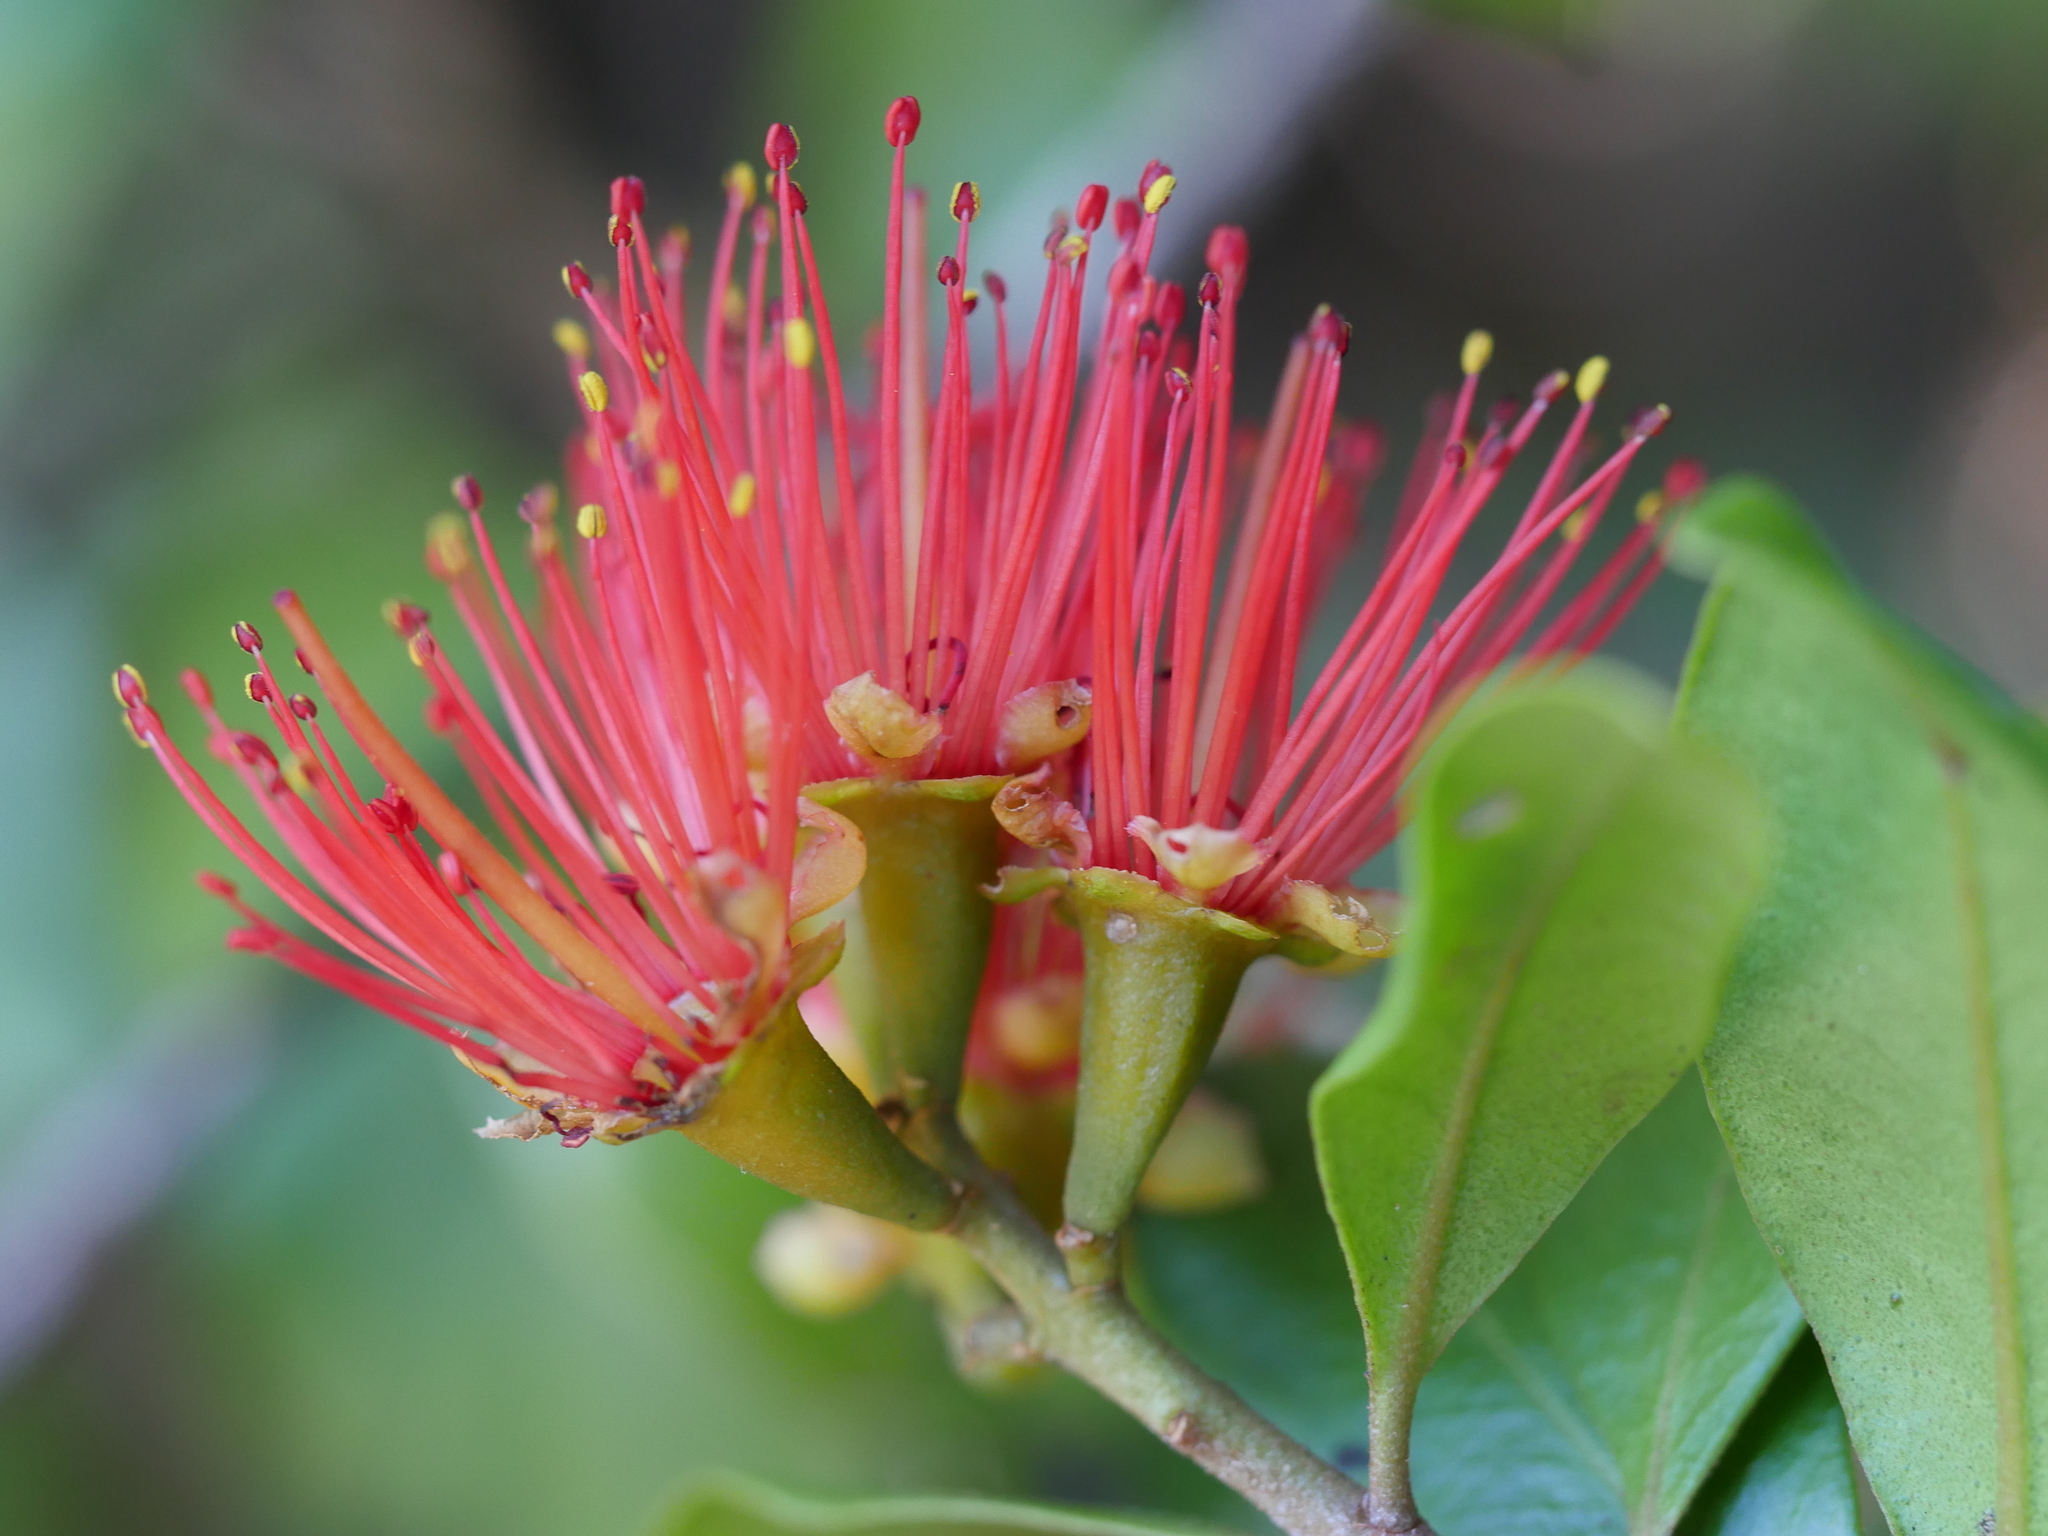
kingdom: Plantae
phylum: Tracheophyta
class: Magnoliopsida
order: Myrtales
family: Myrtaceae
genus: Metrosideros
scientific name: Metrosideros fulgens
